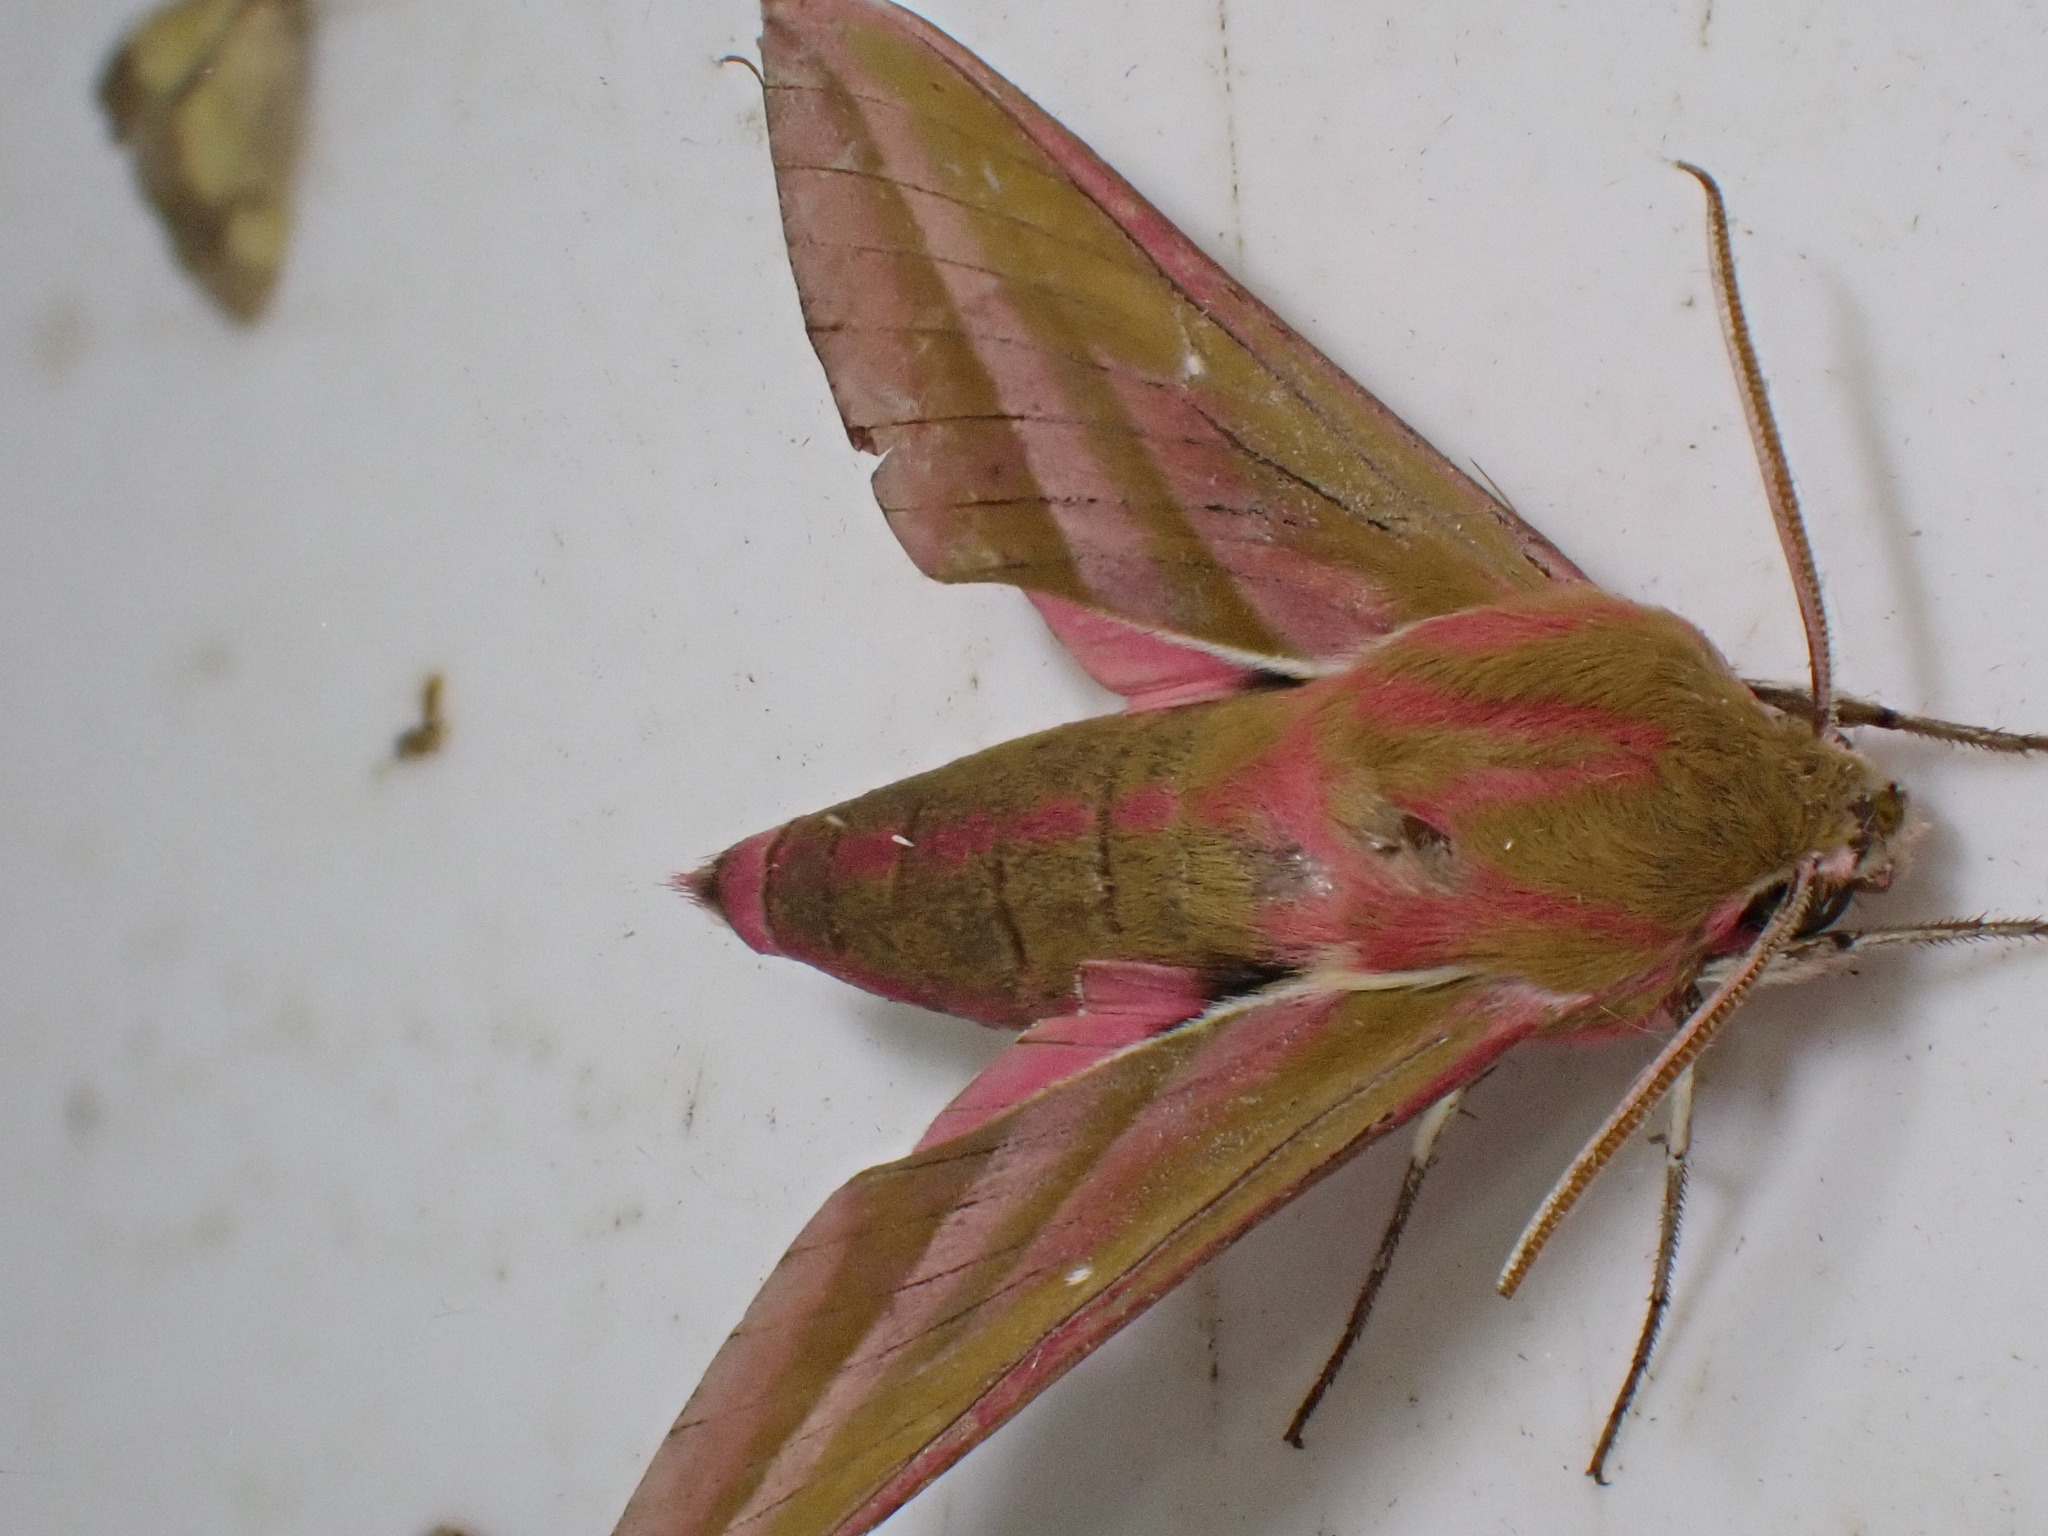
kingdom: Animalia
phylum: Arthropoda
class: Insecta
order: Lepidoptera
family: Sphingidae
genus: Deilephila
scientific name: Deilephila elpenor
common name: Elephant hawk-moth
